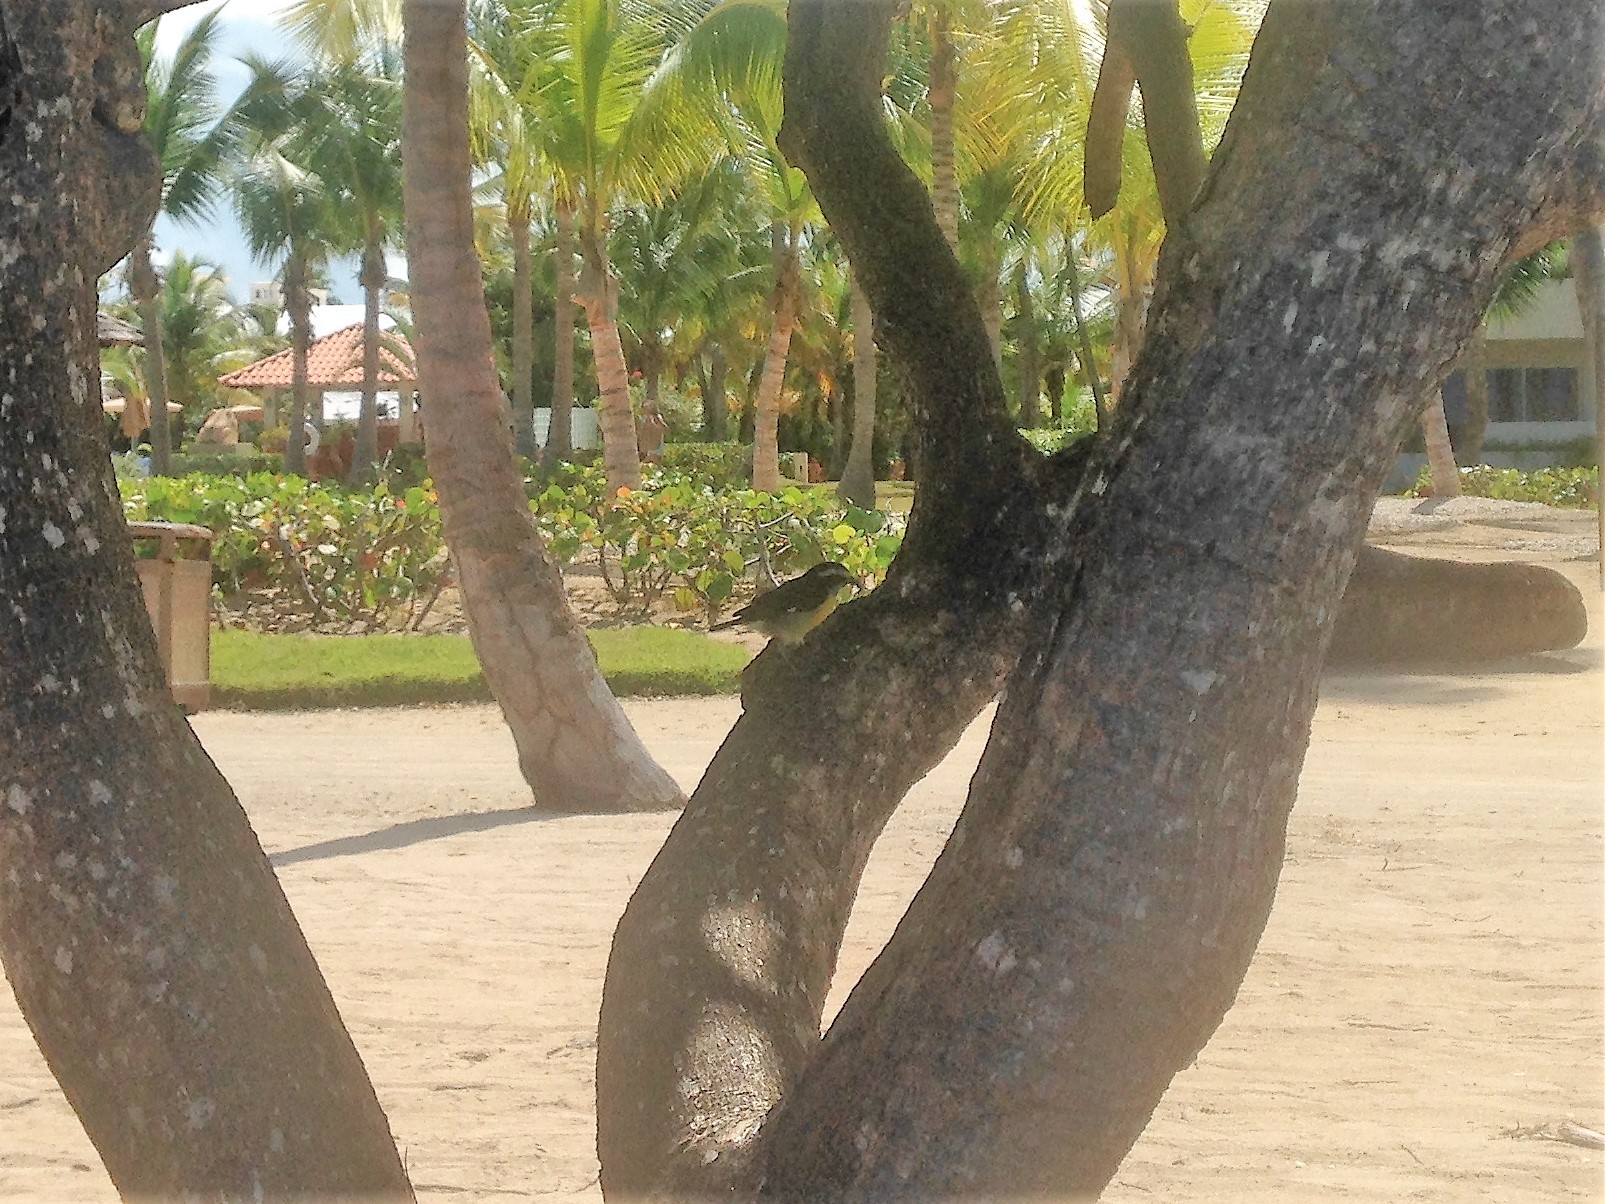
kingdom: Animalia
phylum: Chordata
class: Aves
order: Passeriformes
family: Thraupidae
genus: Coereba
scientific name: Coereba flaveola
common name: Bananaquit
